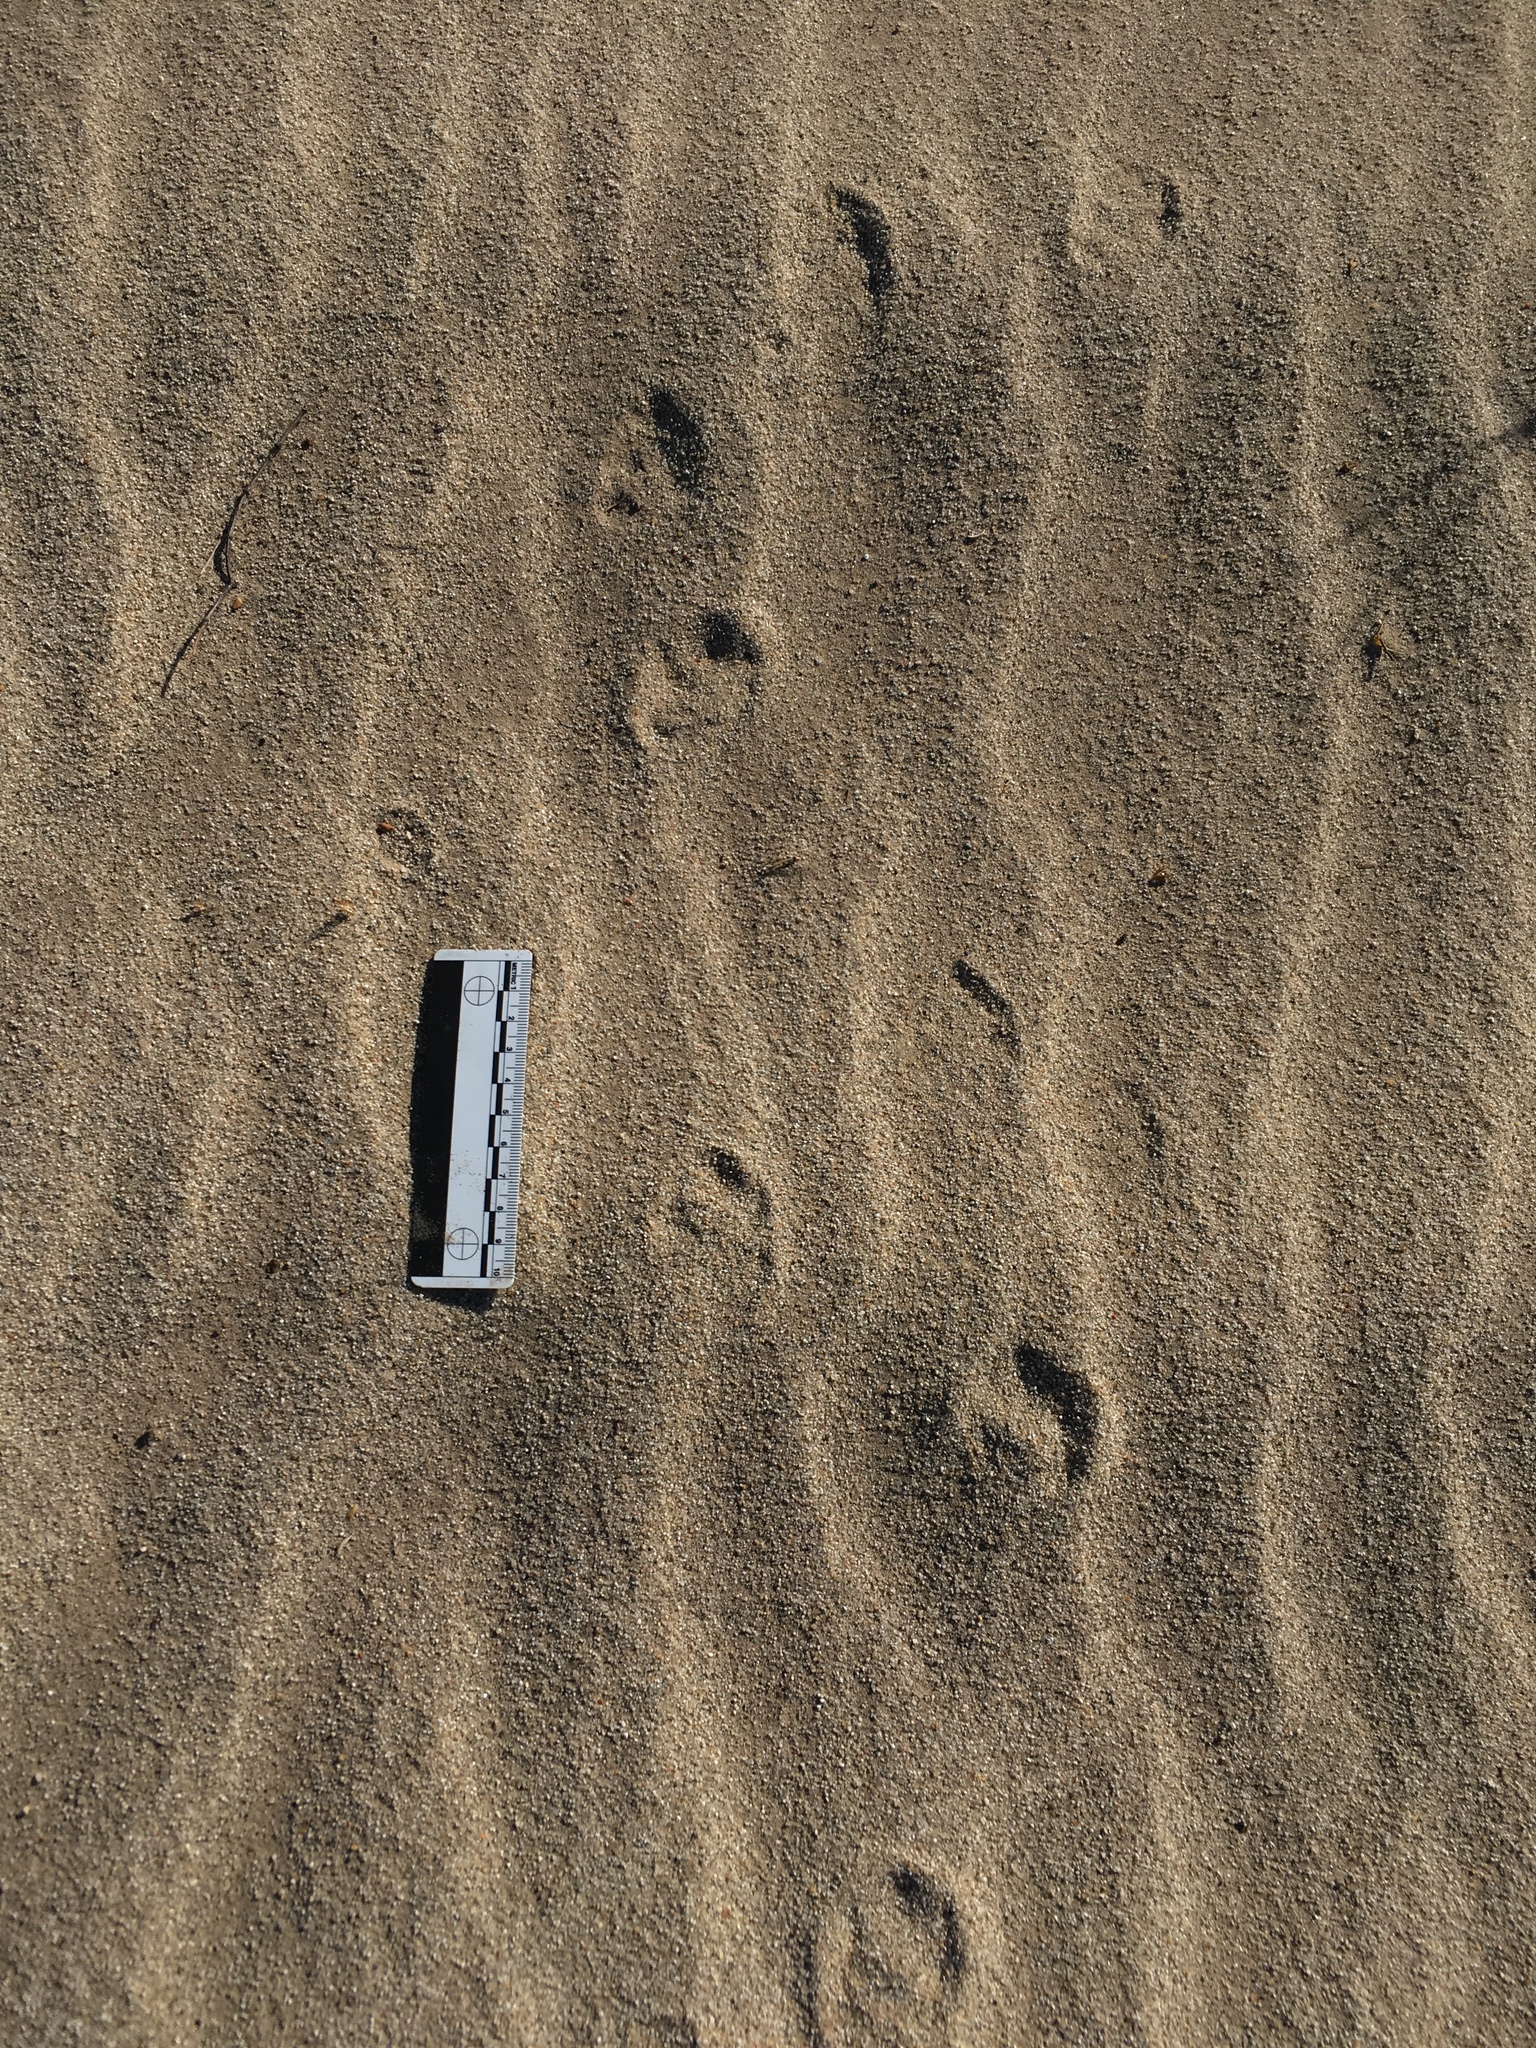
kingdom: Animalia
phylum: Chordata
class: Mammalia
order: Lagomorpha
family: Leporidae
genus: Lepus
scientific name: Lepus californicus
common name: Black-tailed jackrabbit
